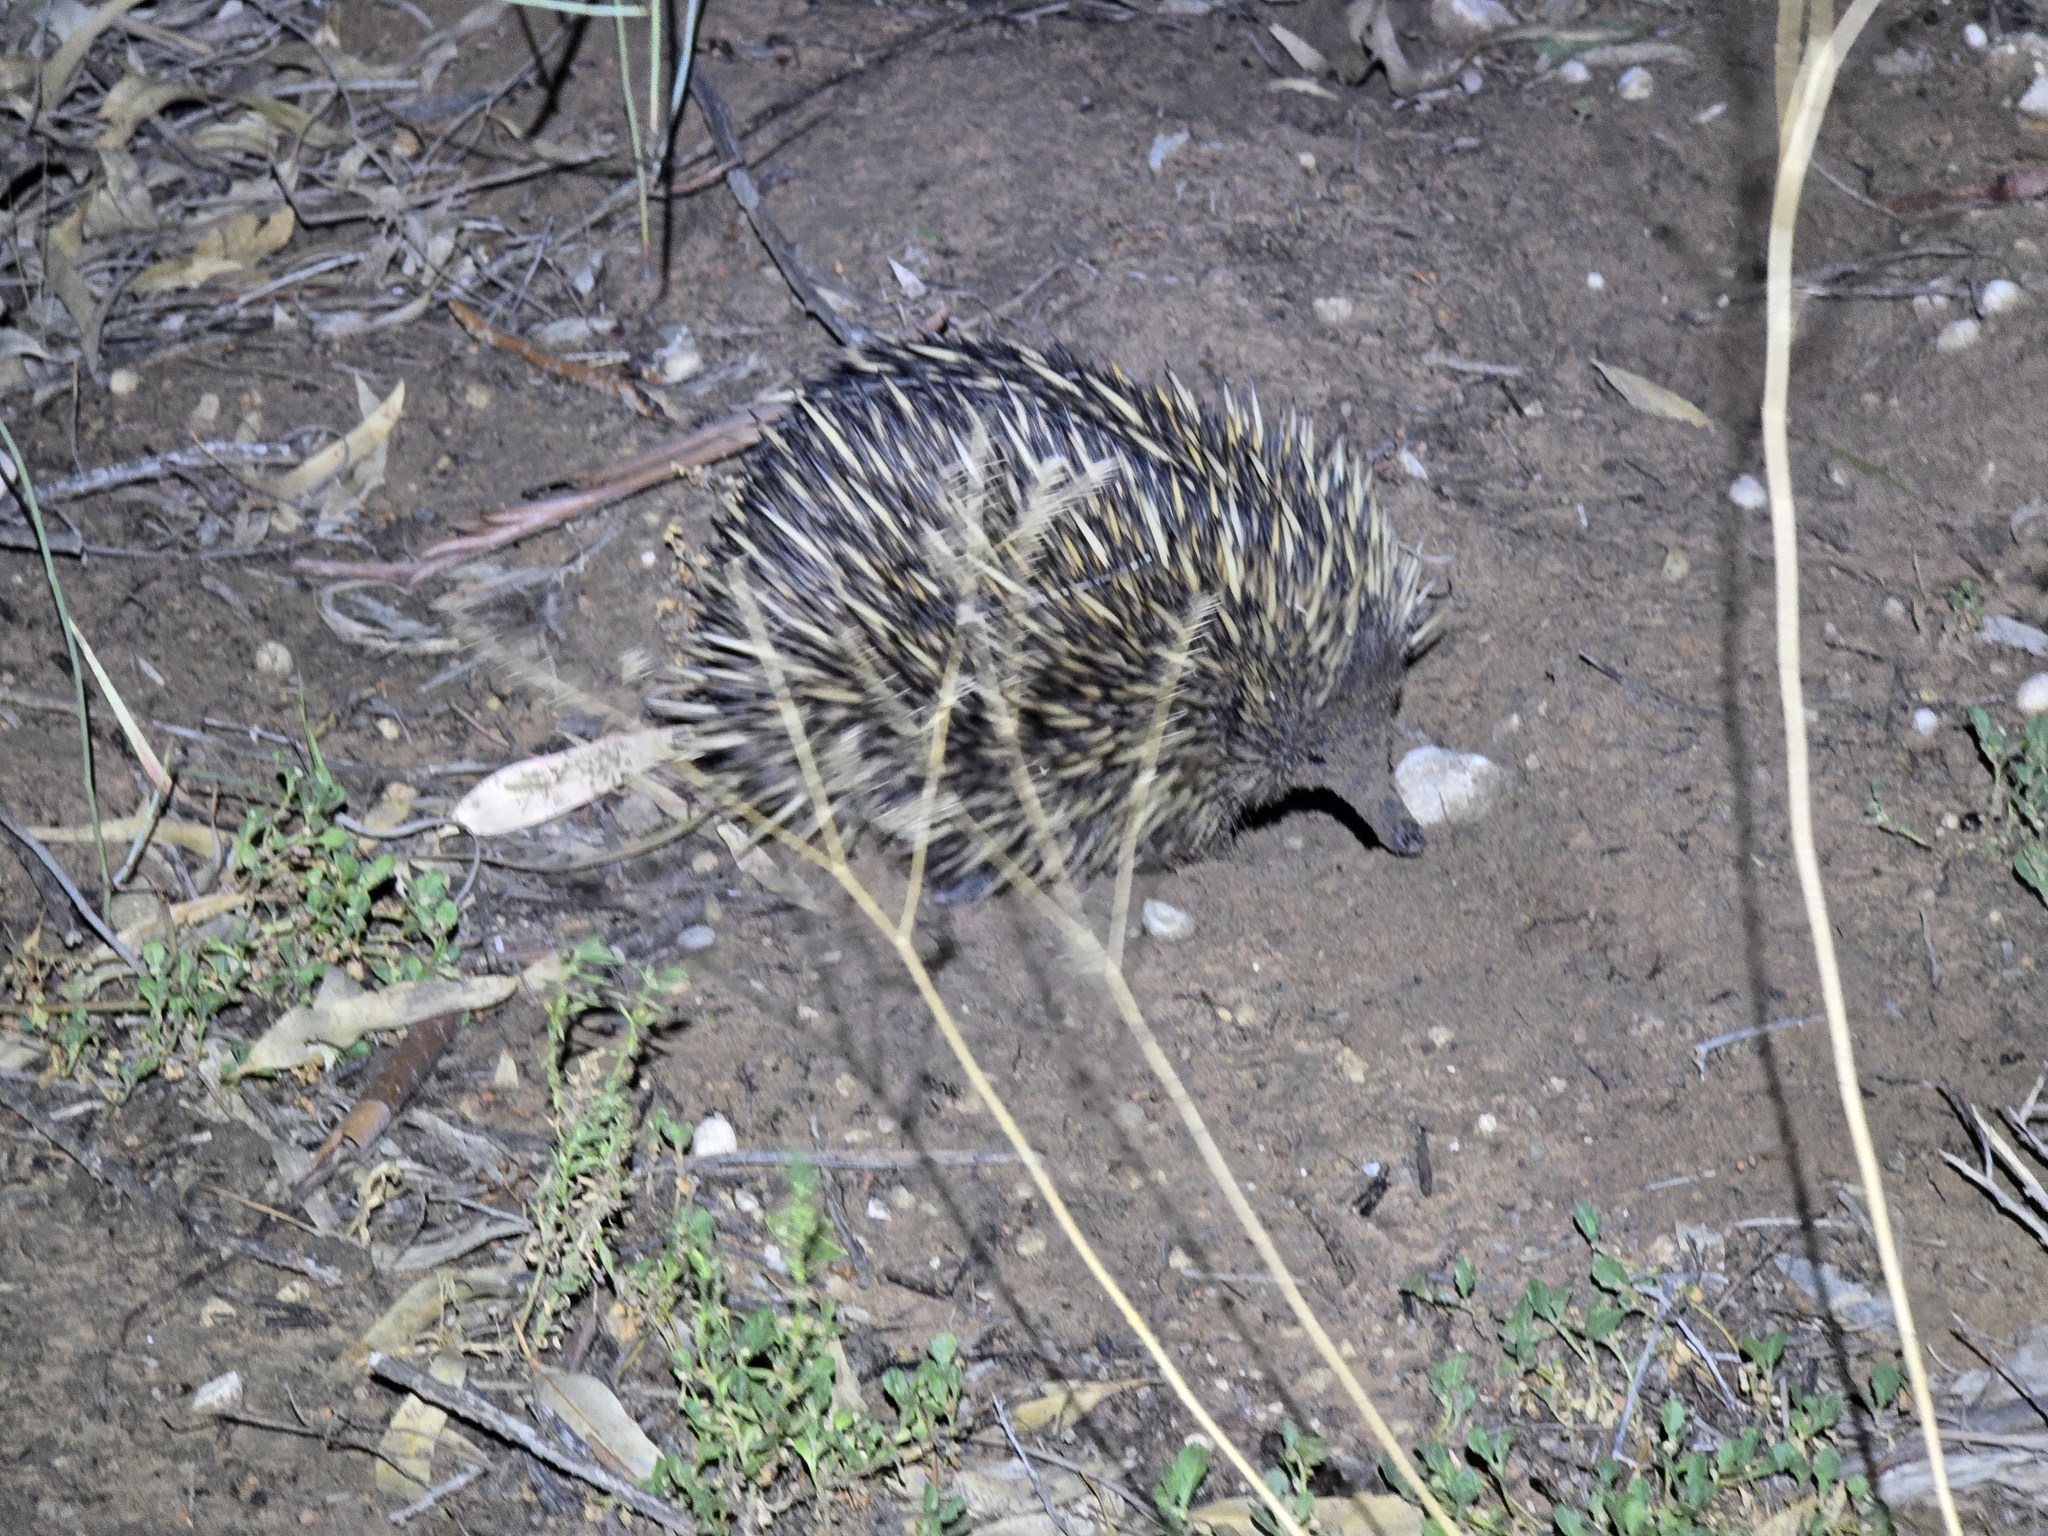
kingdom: Animalia
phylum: Chordata
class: Mammalia
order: Monotremata
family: Tachyglossidae
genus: Tachyglossus
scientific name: Tachyglossus aculeatus
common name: Short-beaked echidna
